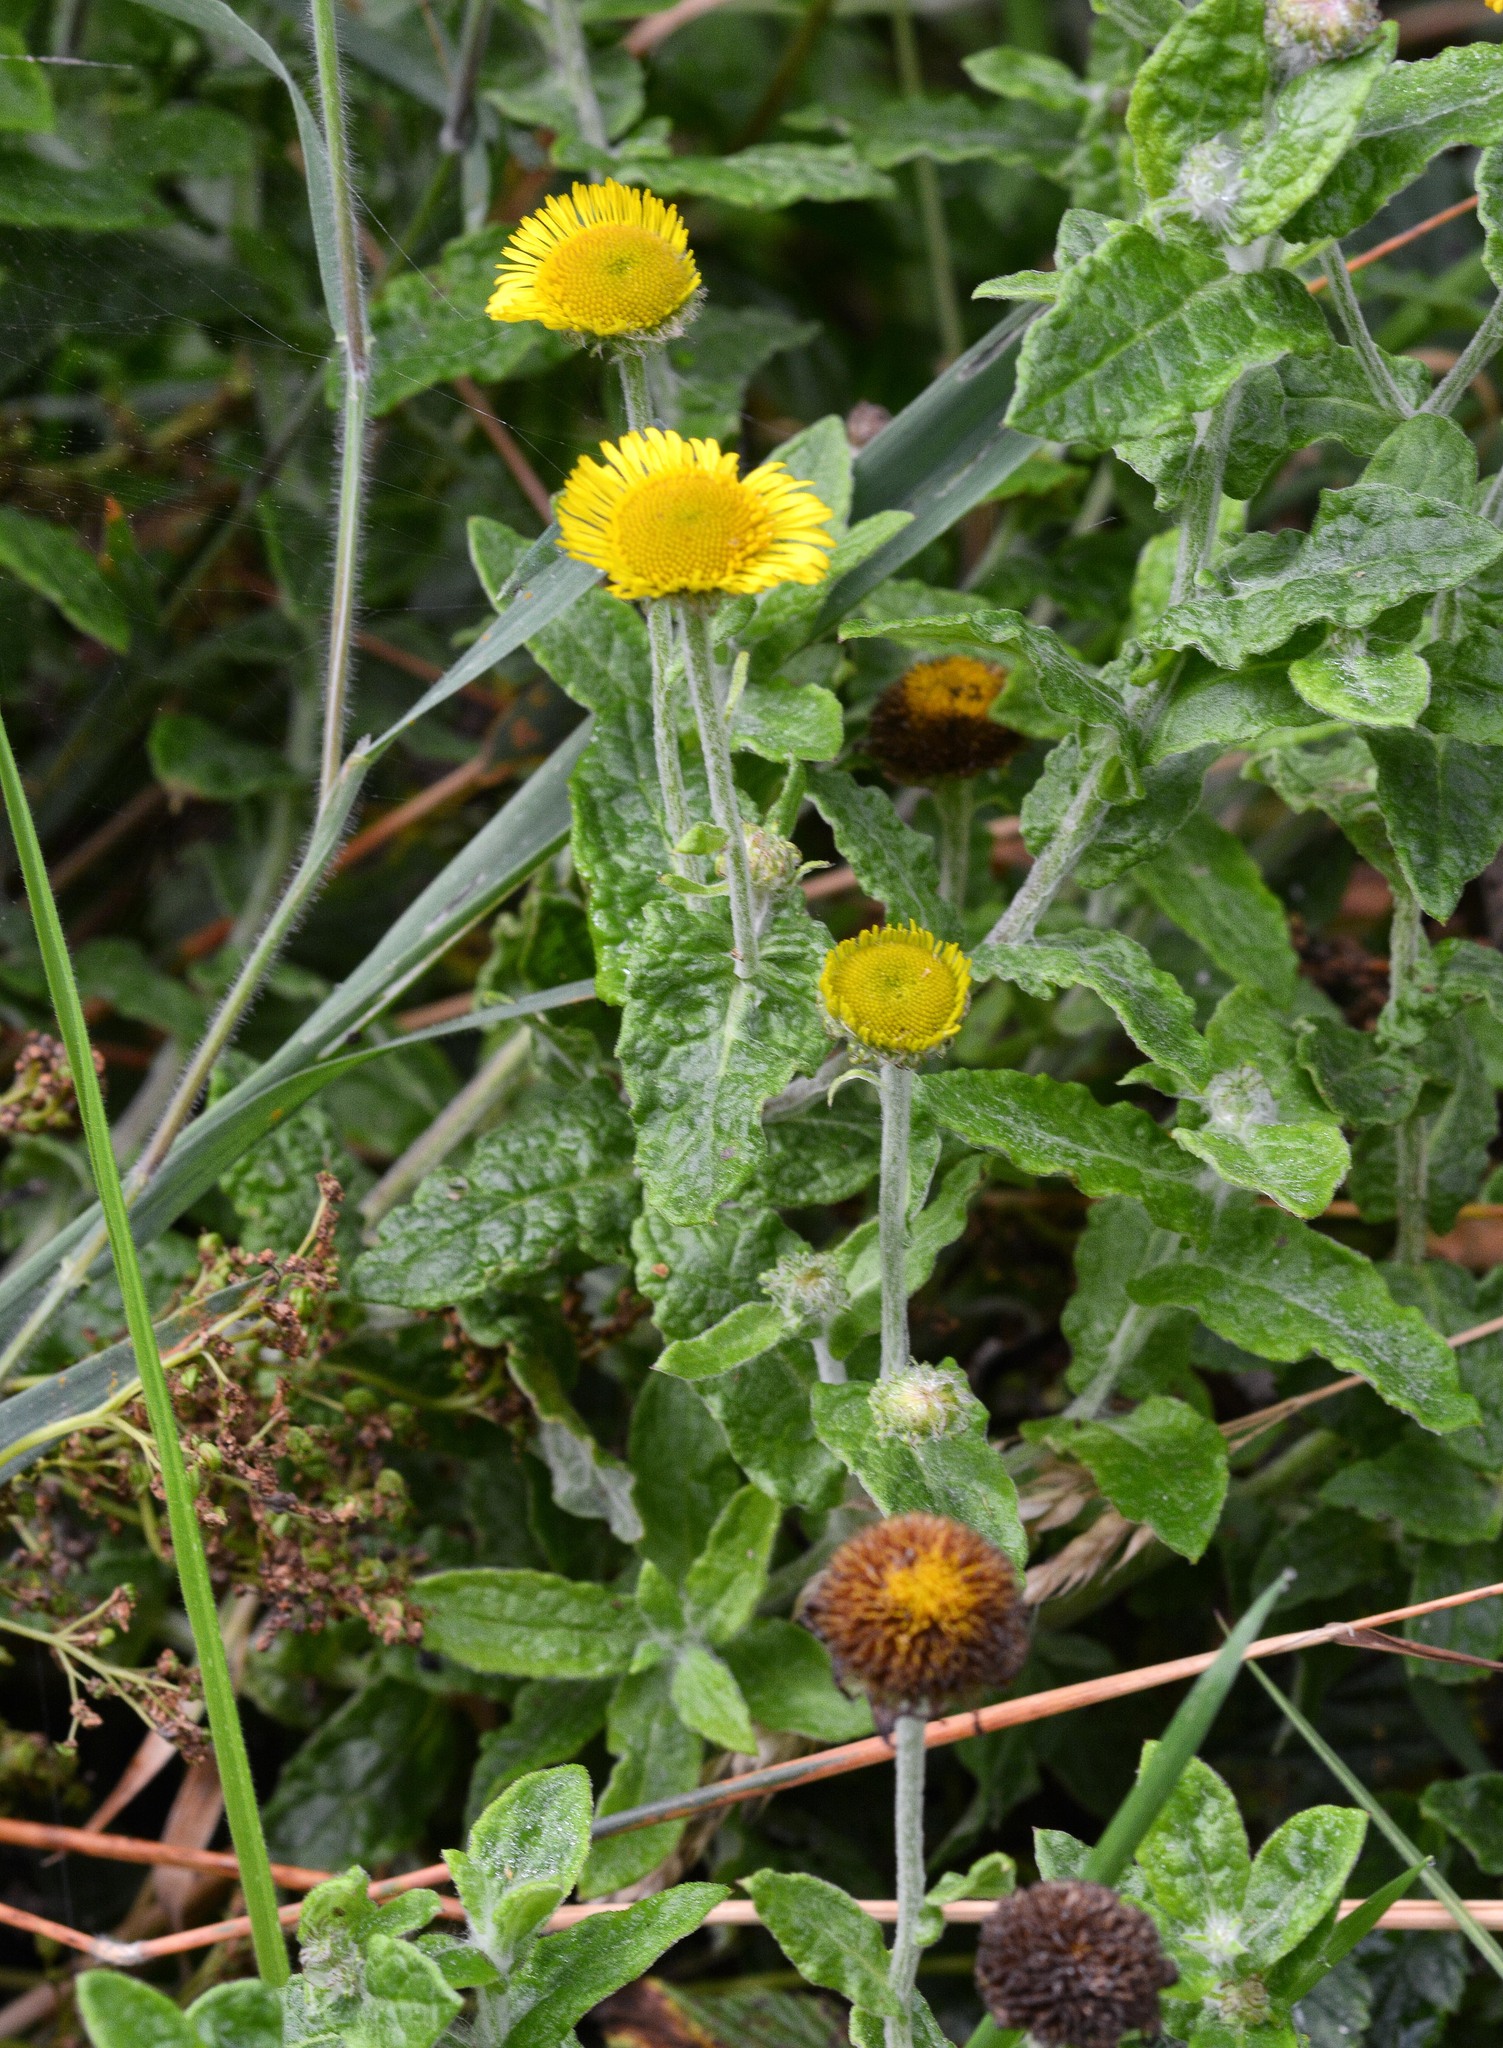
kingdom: Plantae
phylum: Tracheophyta
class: Magnoliopsida
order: Asterales
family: Asteraceae
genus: Pulicaria
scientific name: Pulicaria dysenterica
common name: Common fleabane
